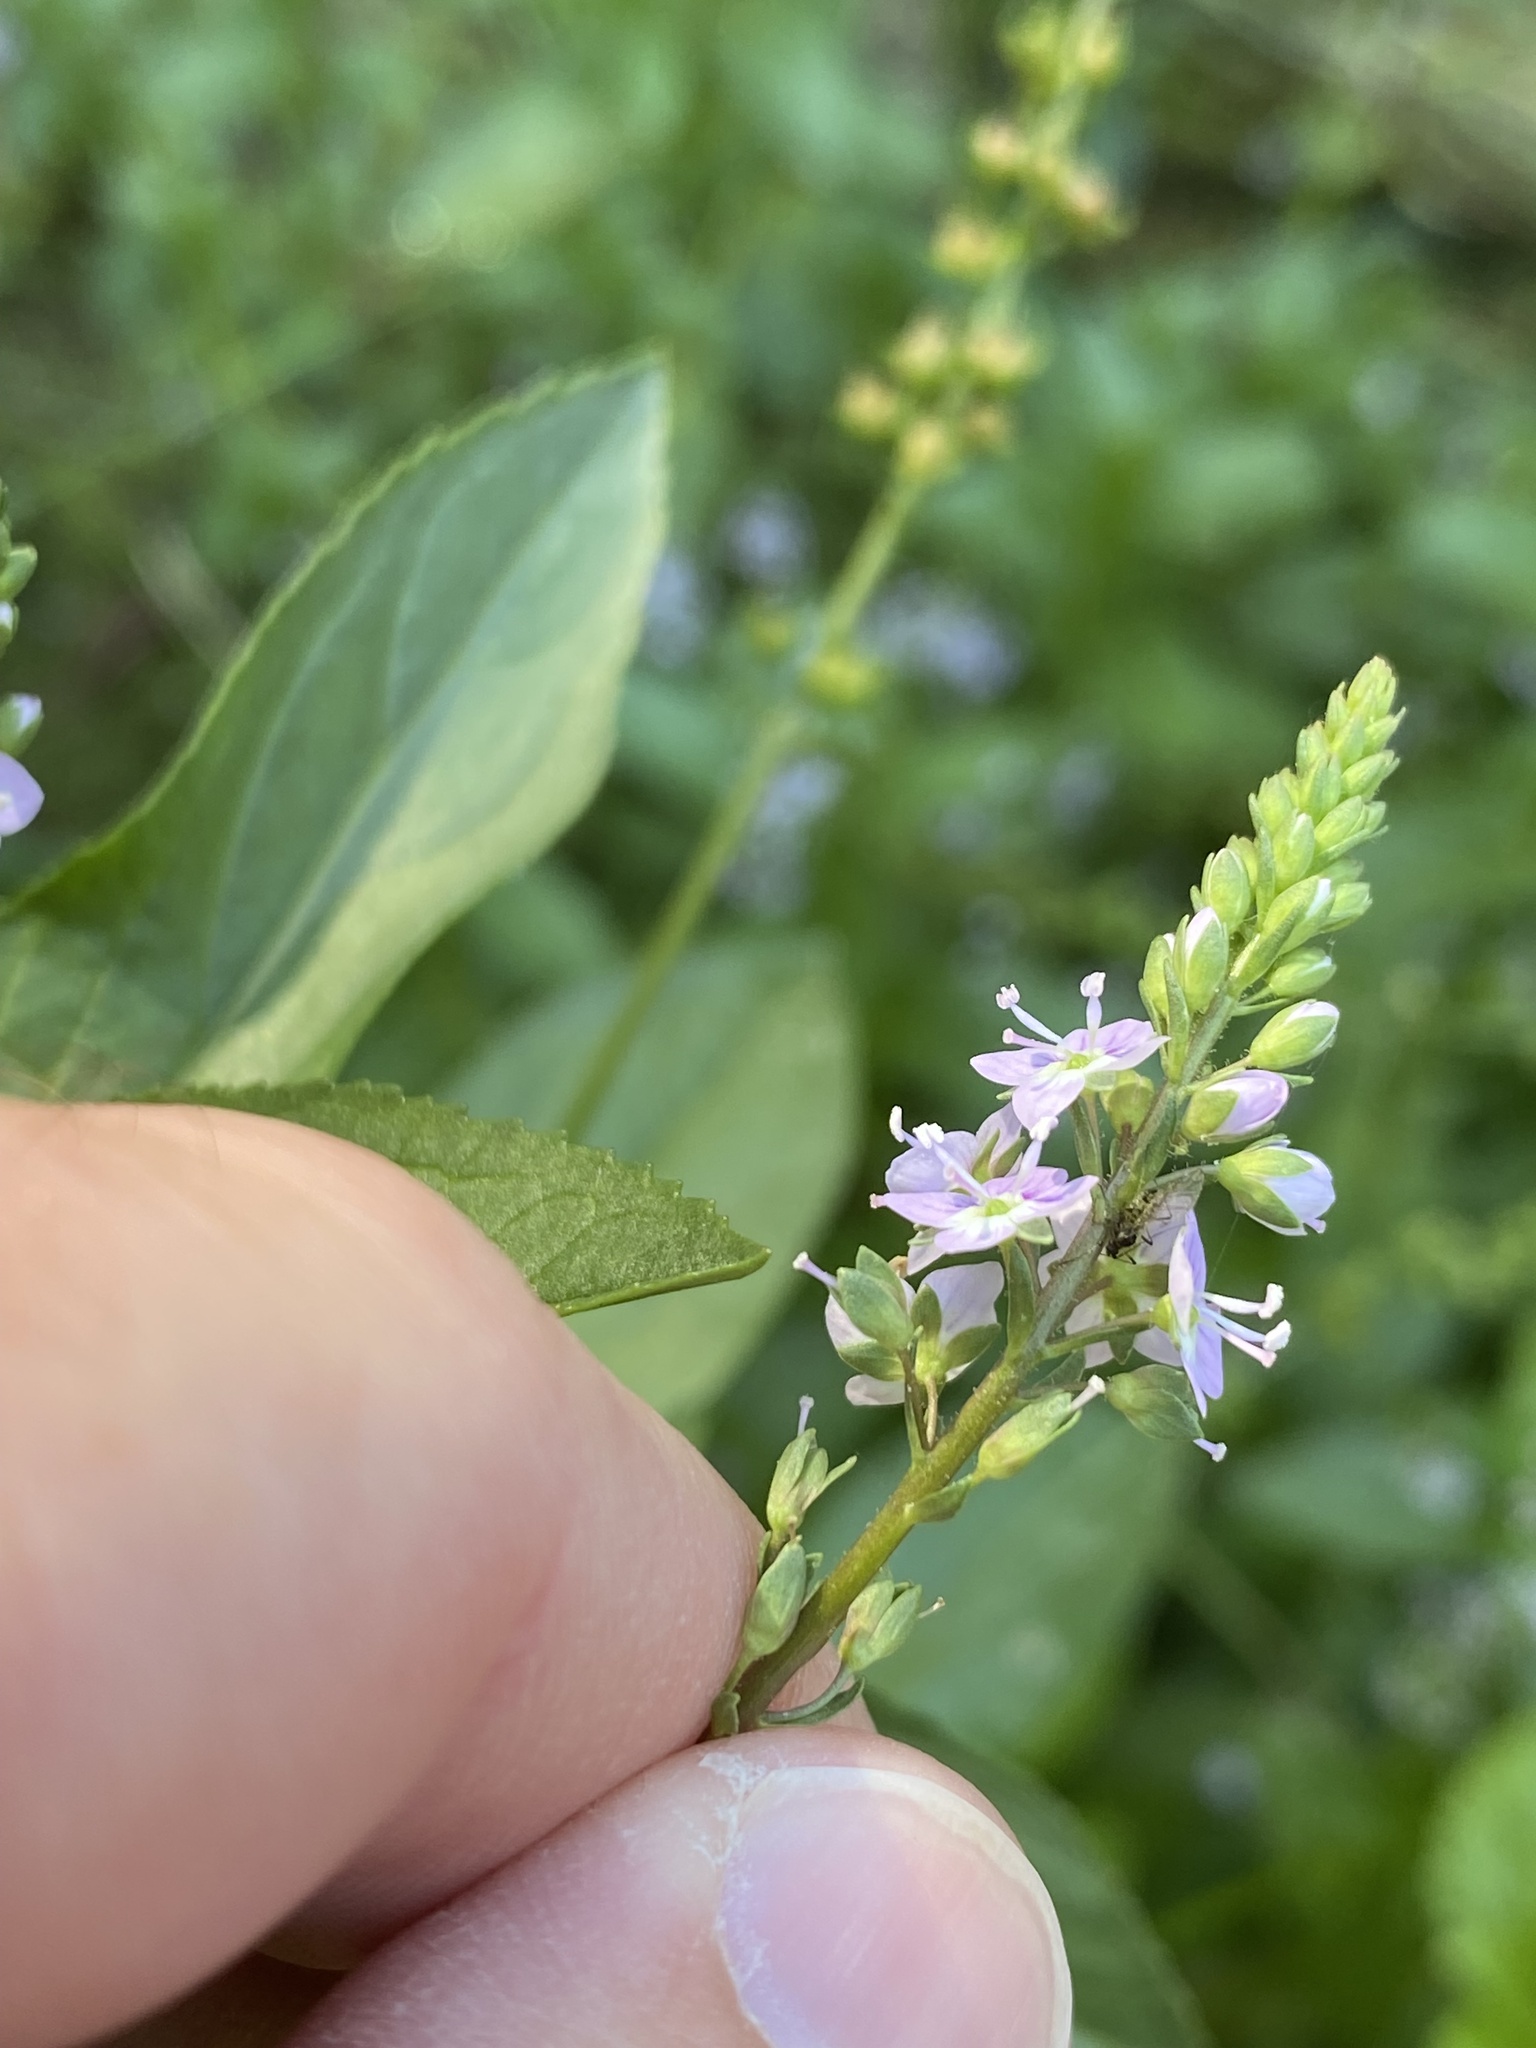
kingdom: Plantae
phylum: Tracheophyta
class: Magnoliopsida
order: Lamiales
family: Plantaginaceae
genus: Veronica
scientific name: Veronica anagallis-aquatica
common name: Water speedwell
